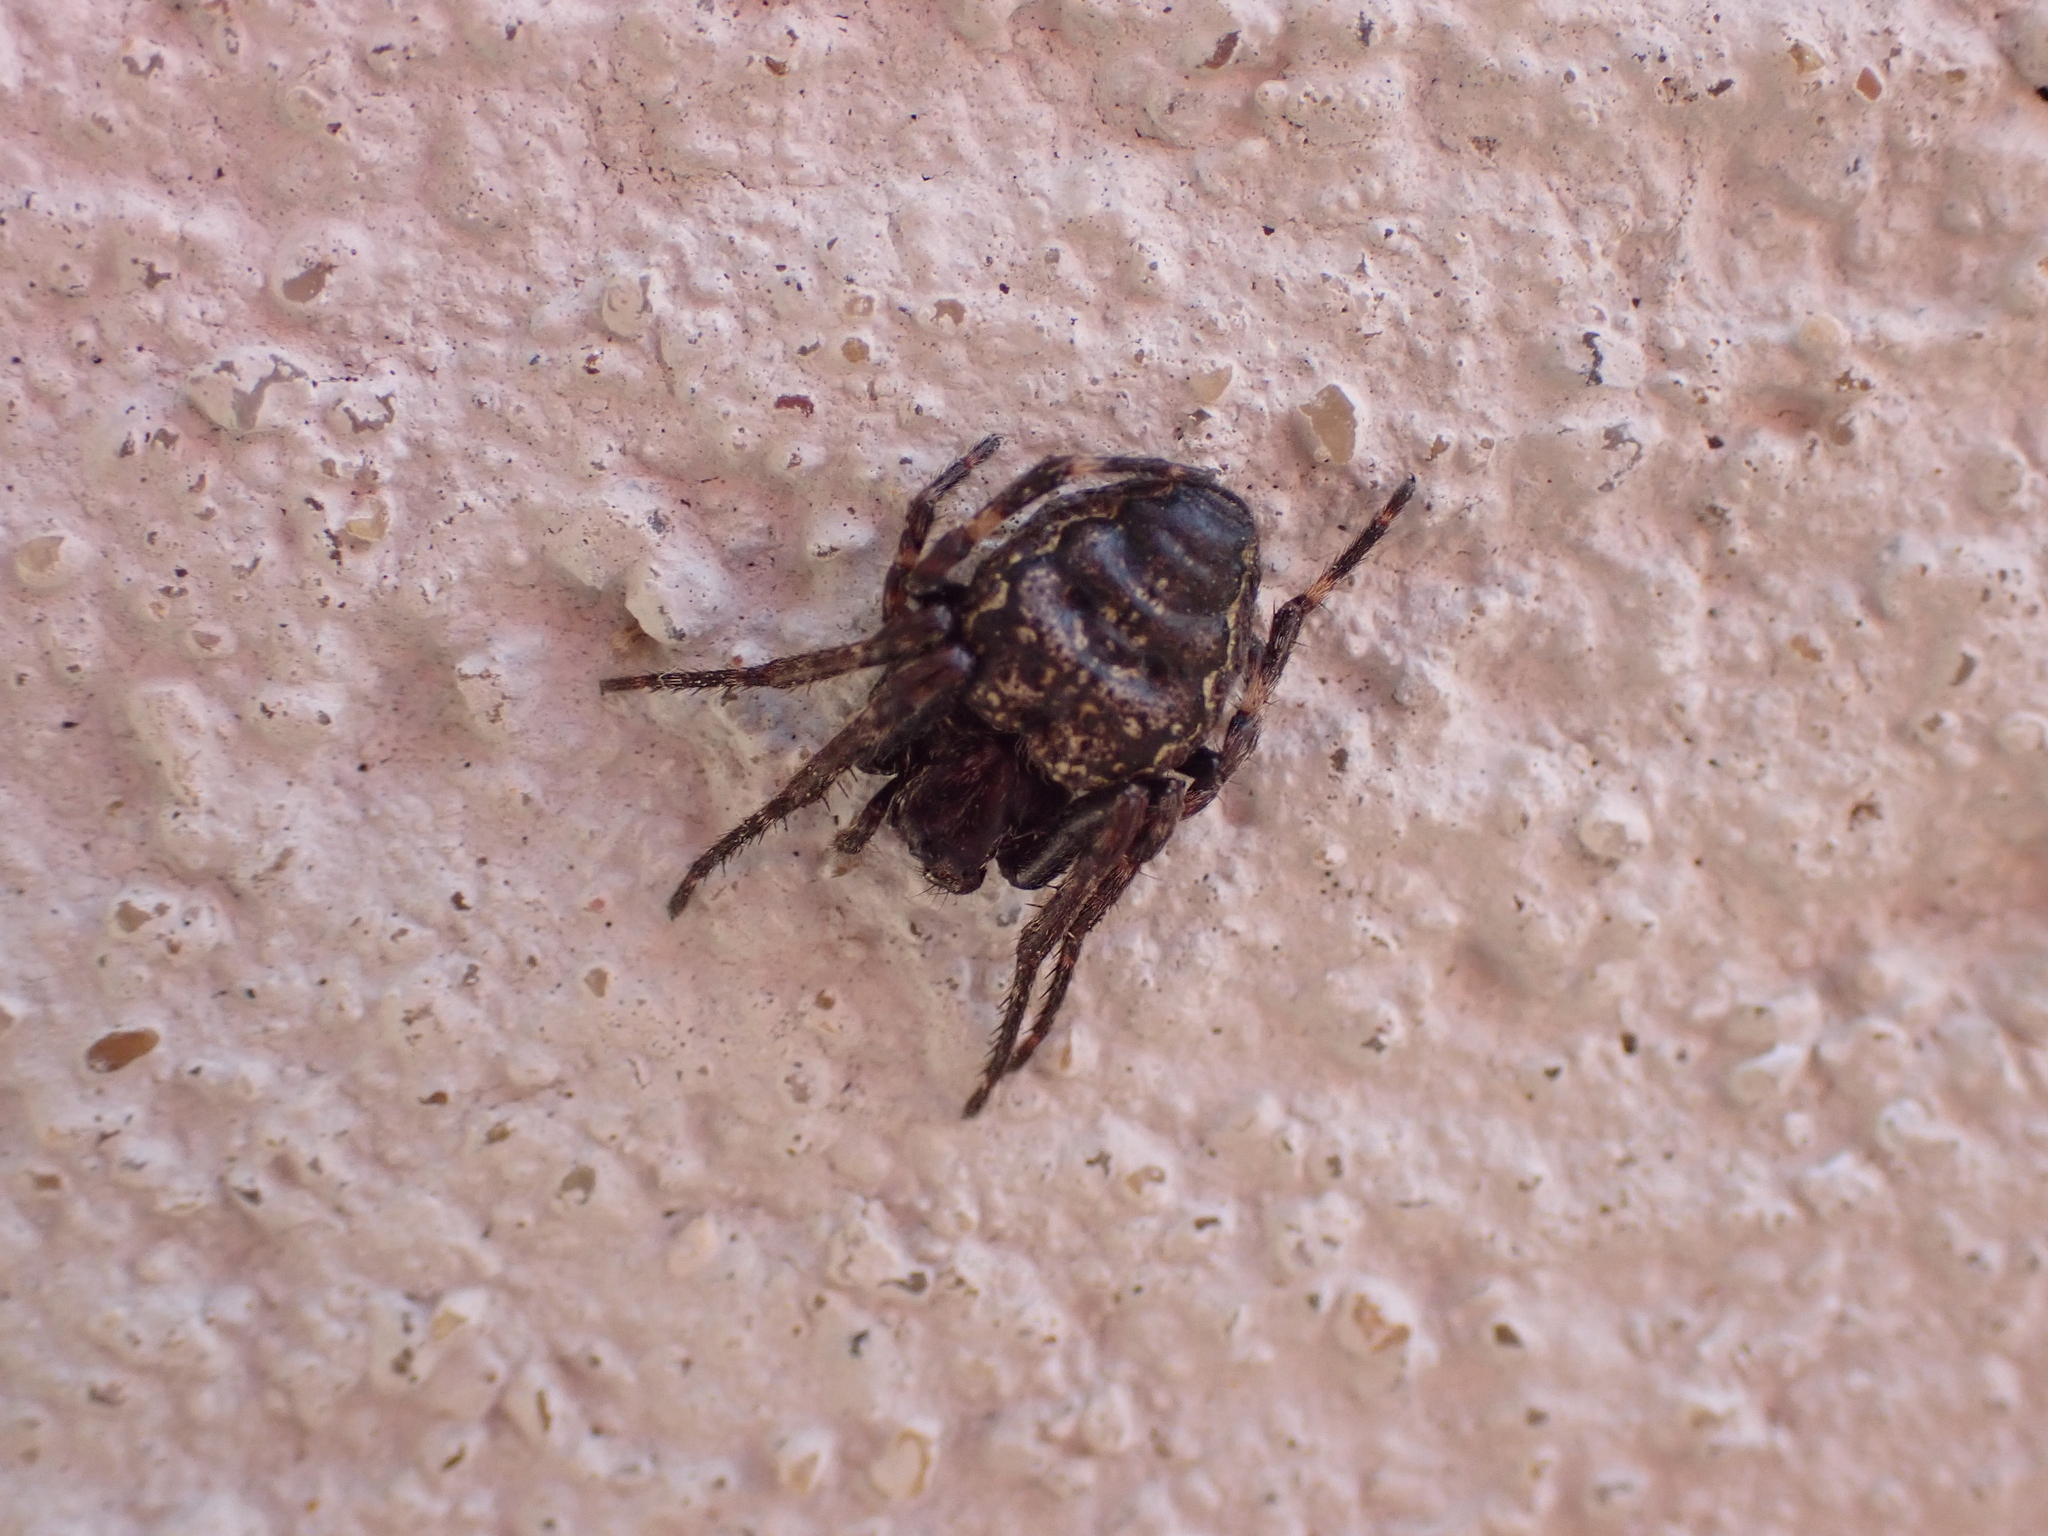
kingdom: Animalia
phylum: Arthropoda
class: Arachnida
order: Araneae
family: Araneidae
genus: Nuctenea
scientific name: Nuctenea umbratica
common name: Toad spider
